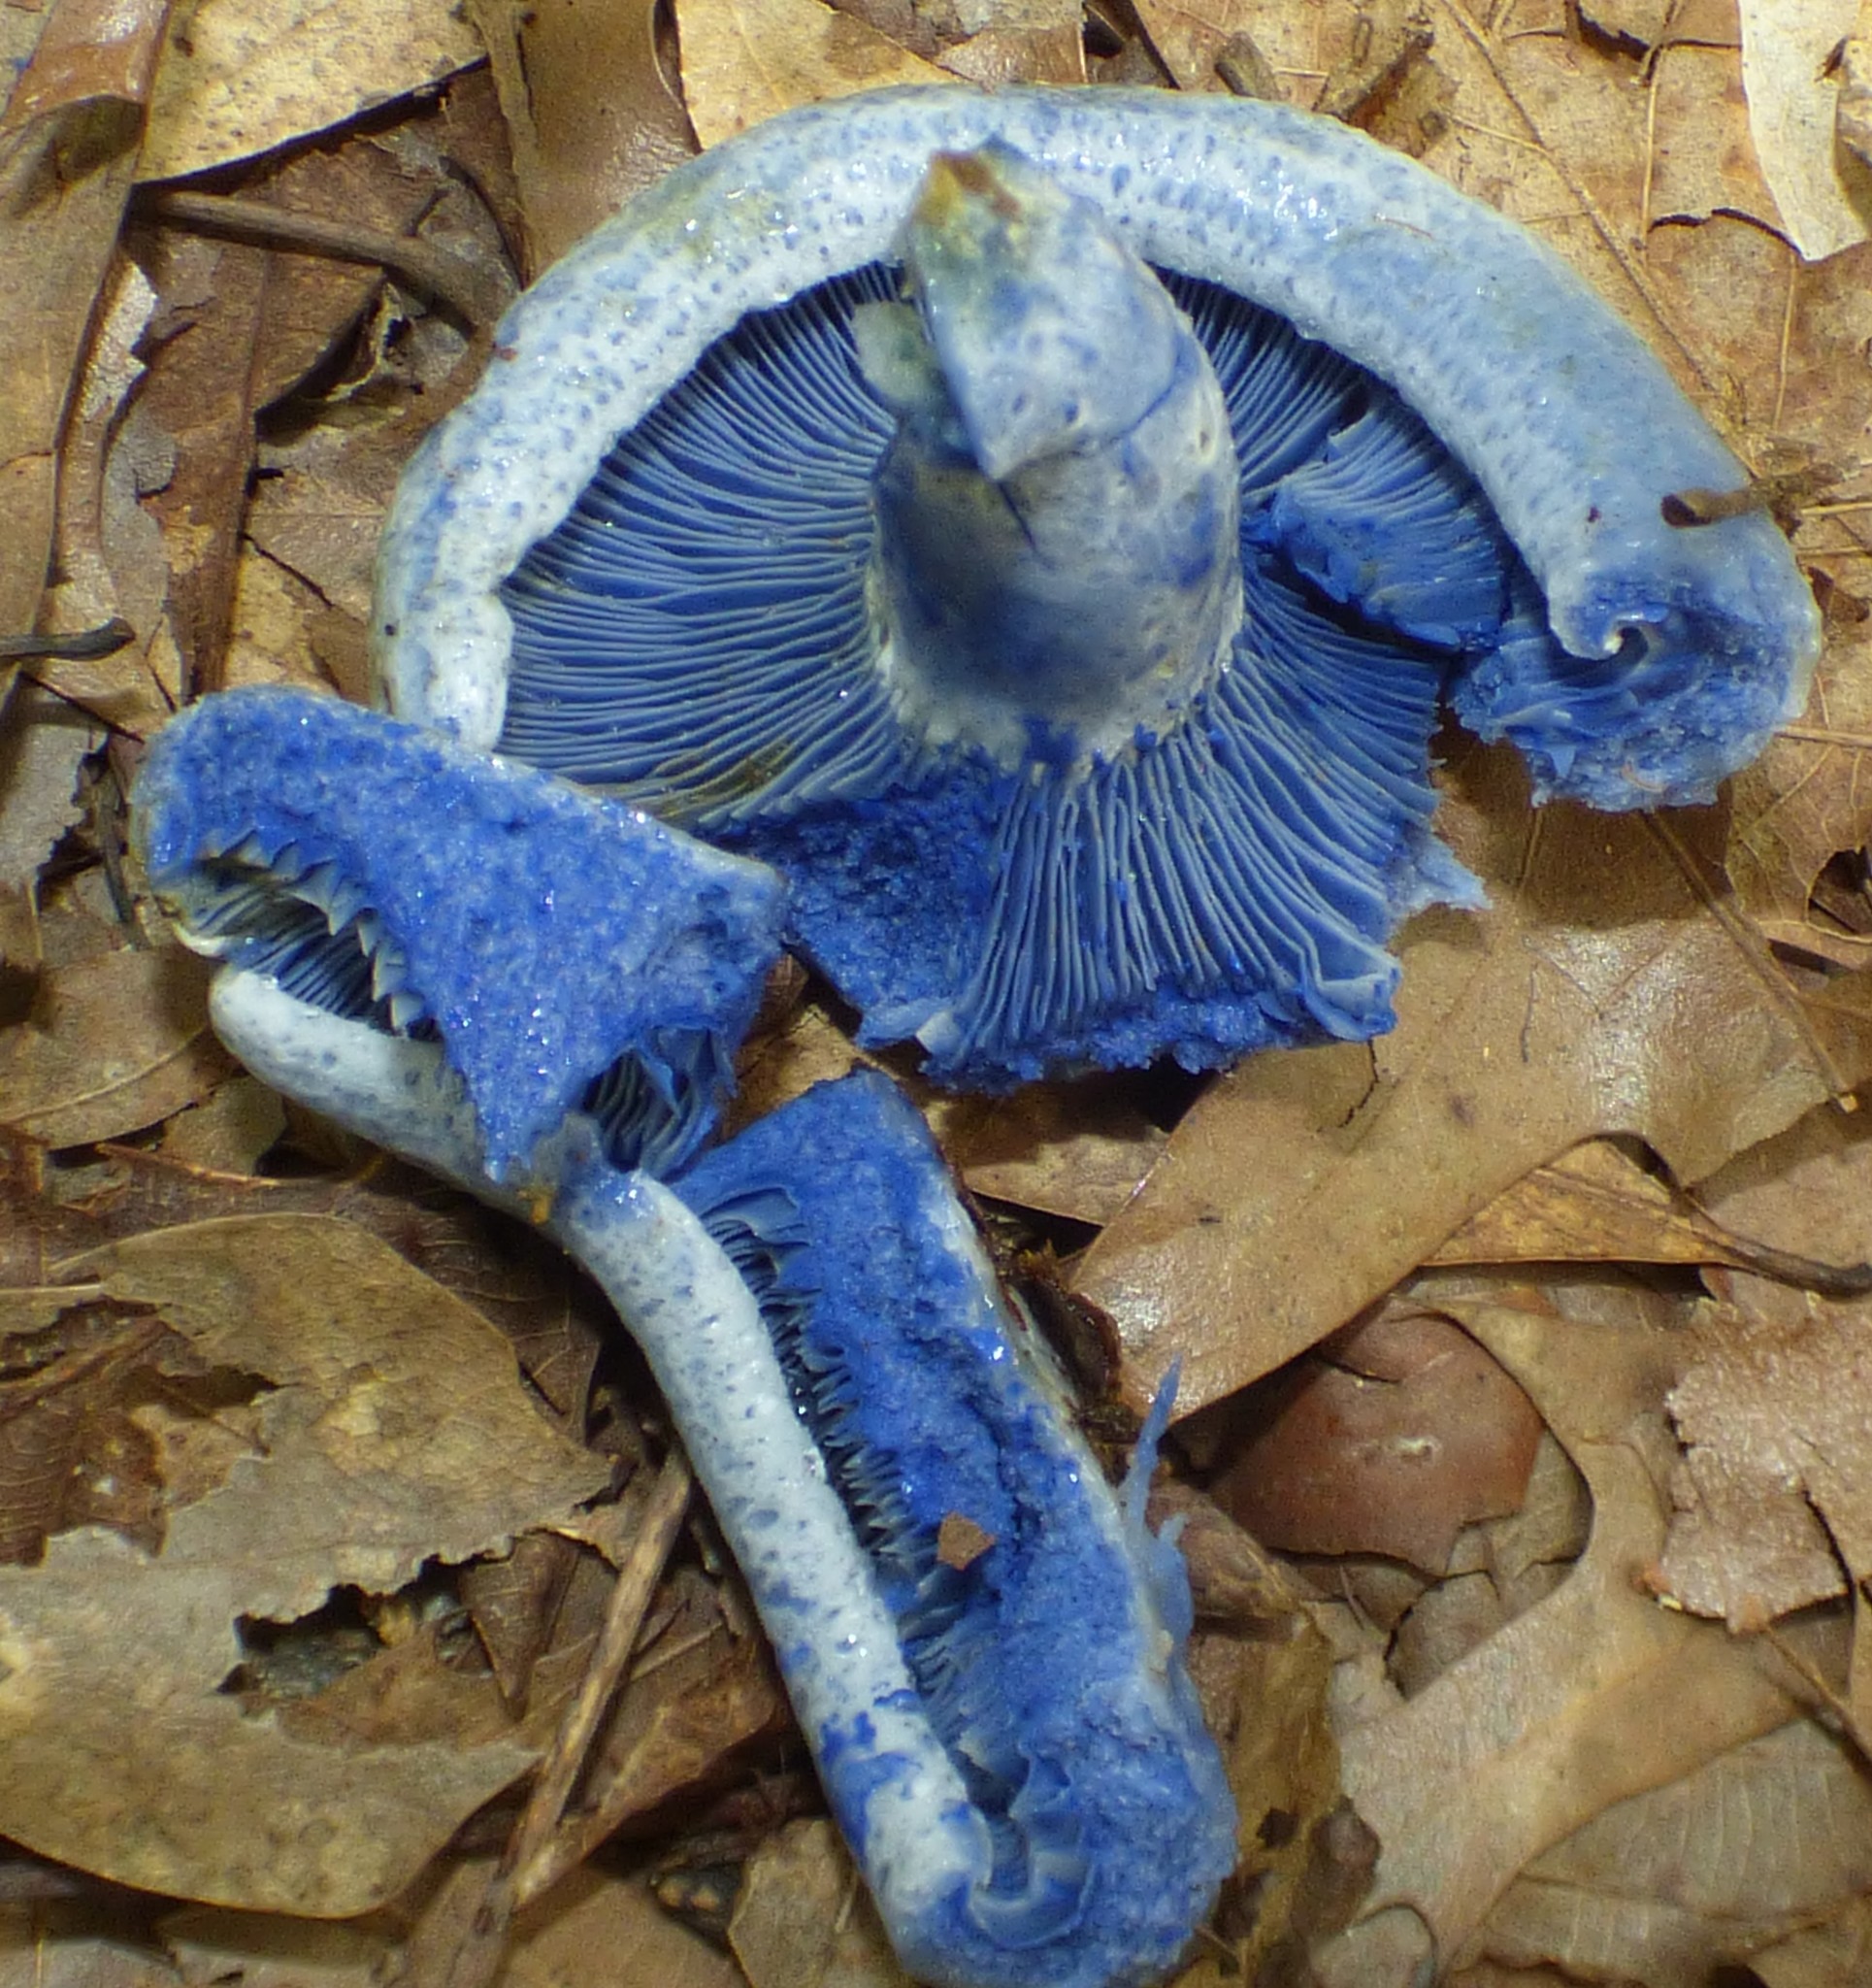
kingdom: Fungi
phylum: Basidiomycota
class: Agaricomycetes
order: Russulales
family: Russulaceae
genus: Lactarius
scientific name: Lactarius indigo
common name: Indigo milk cap
